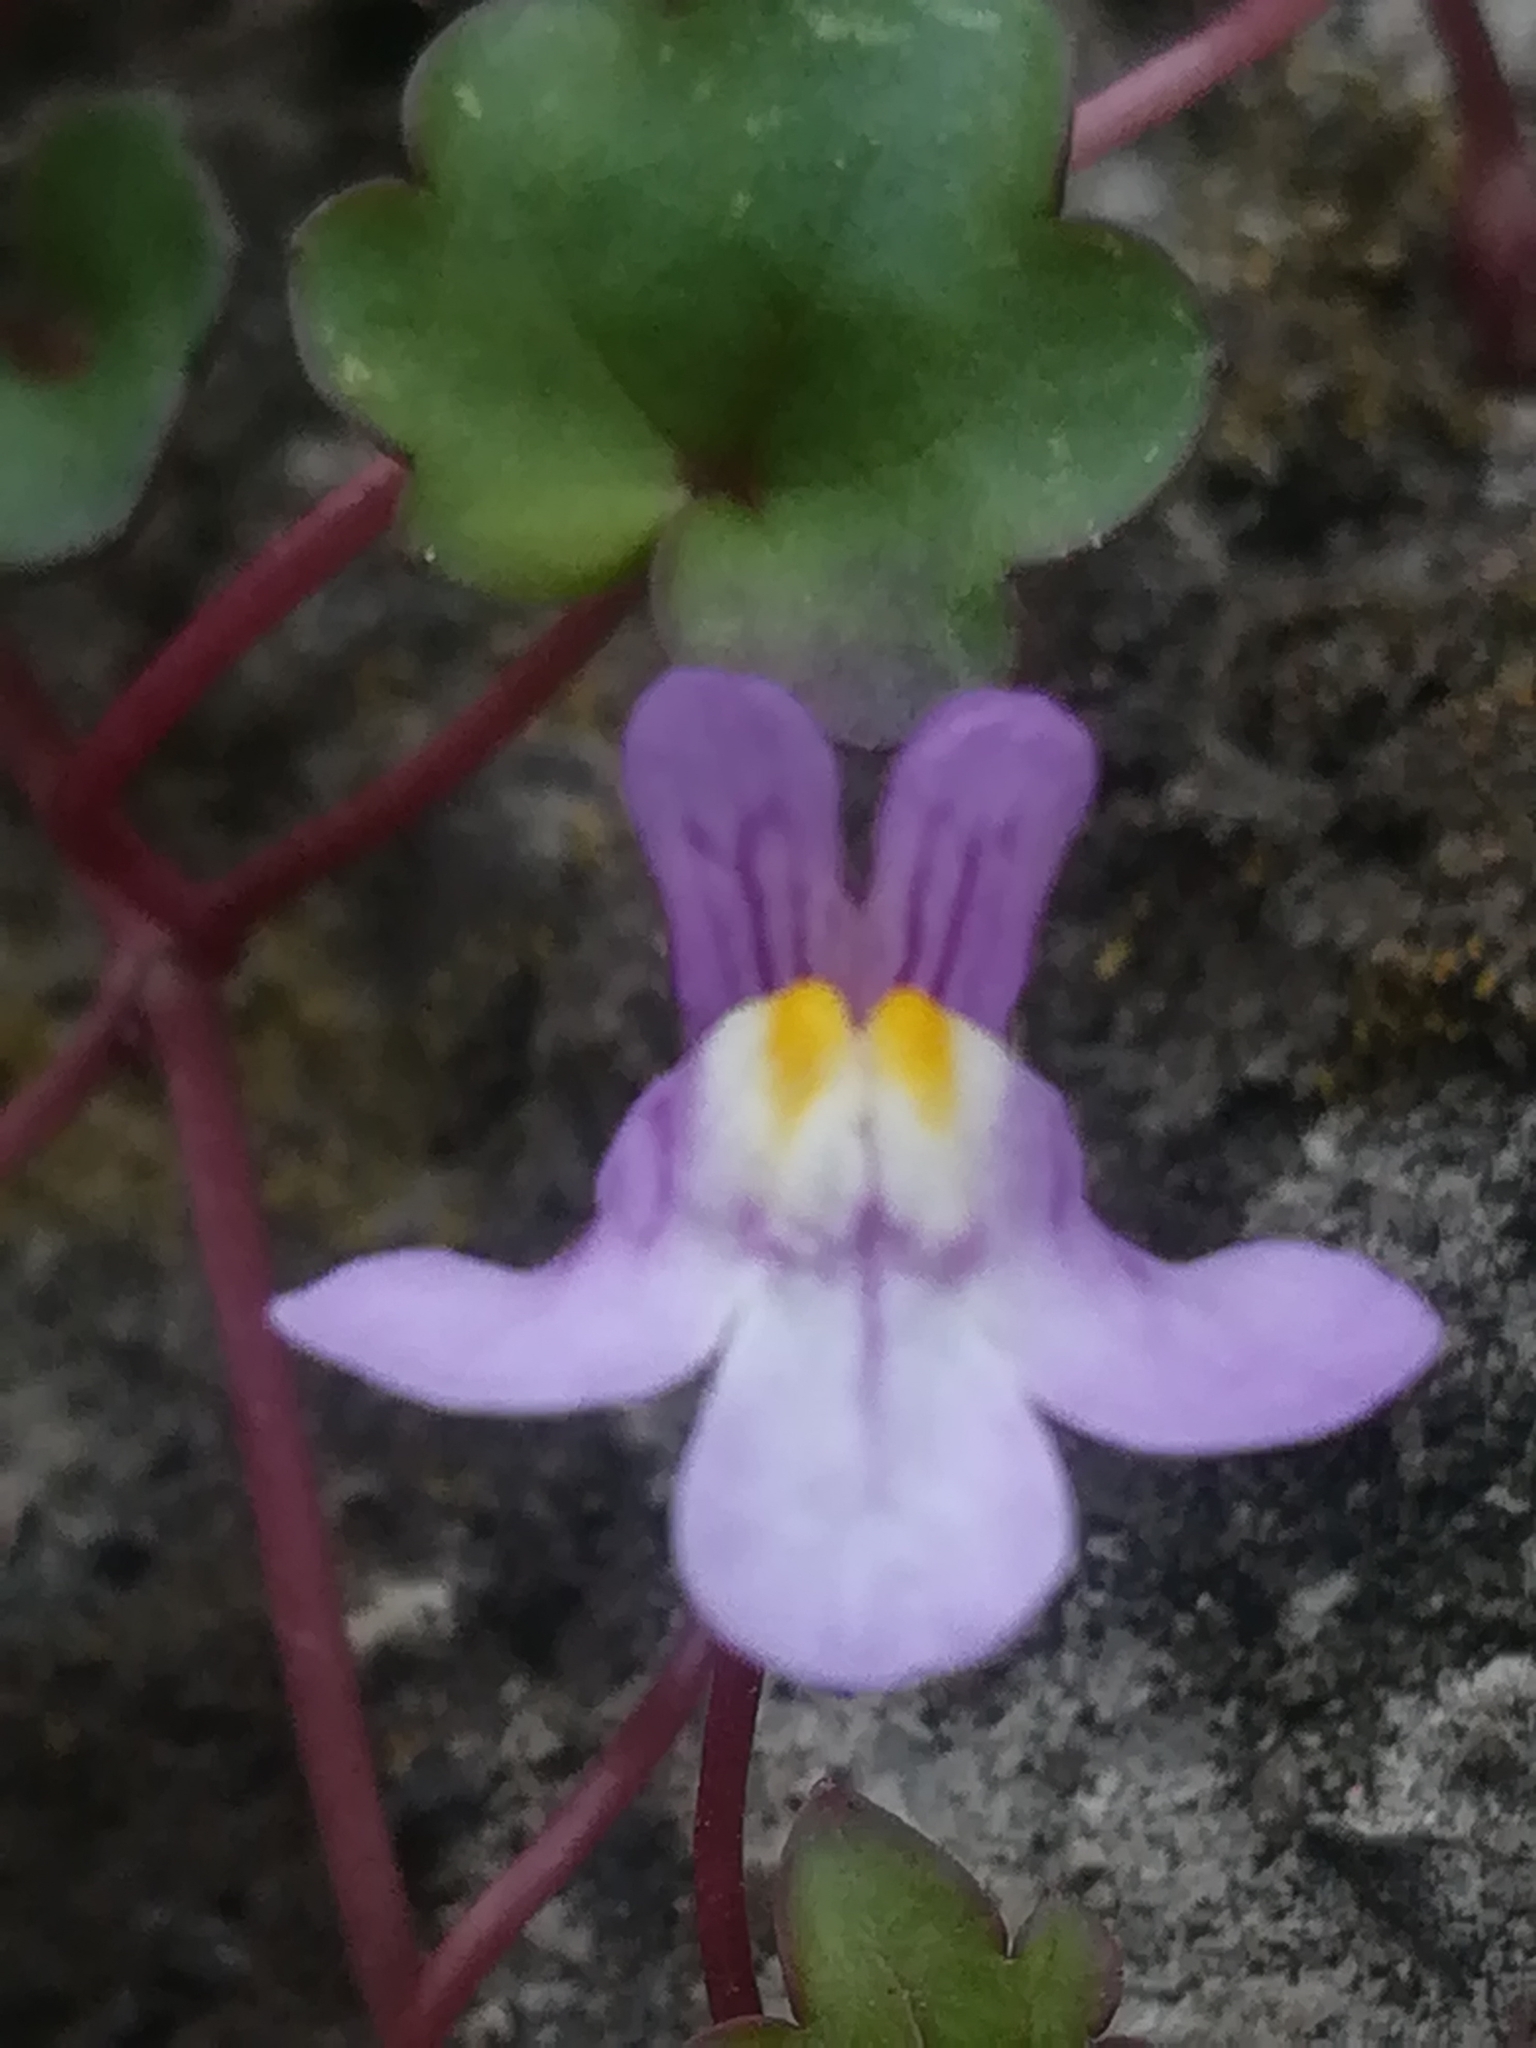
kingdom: Plantae
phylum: Tracheophyta
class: Magnoliopsida
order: Lamiales
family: Plantaginaceae
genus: Cymbalaria
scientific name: Cymbalaria muralis
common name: Ivy-leaved toadflax
